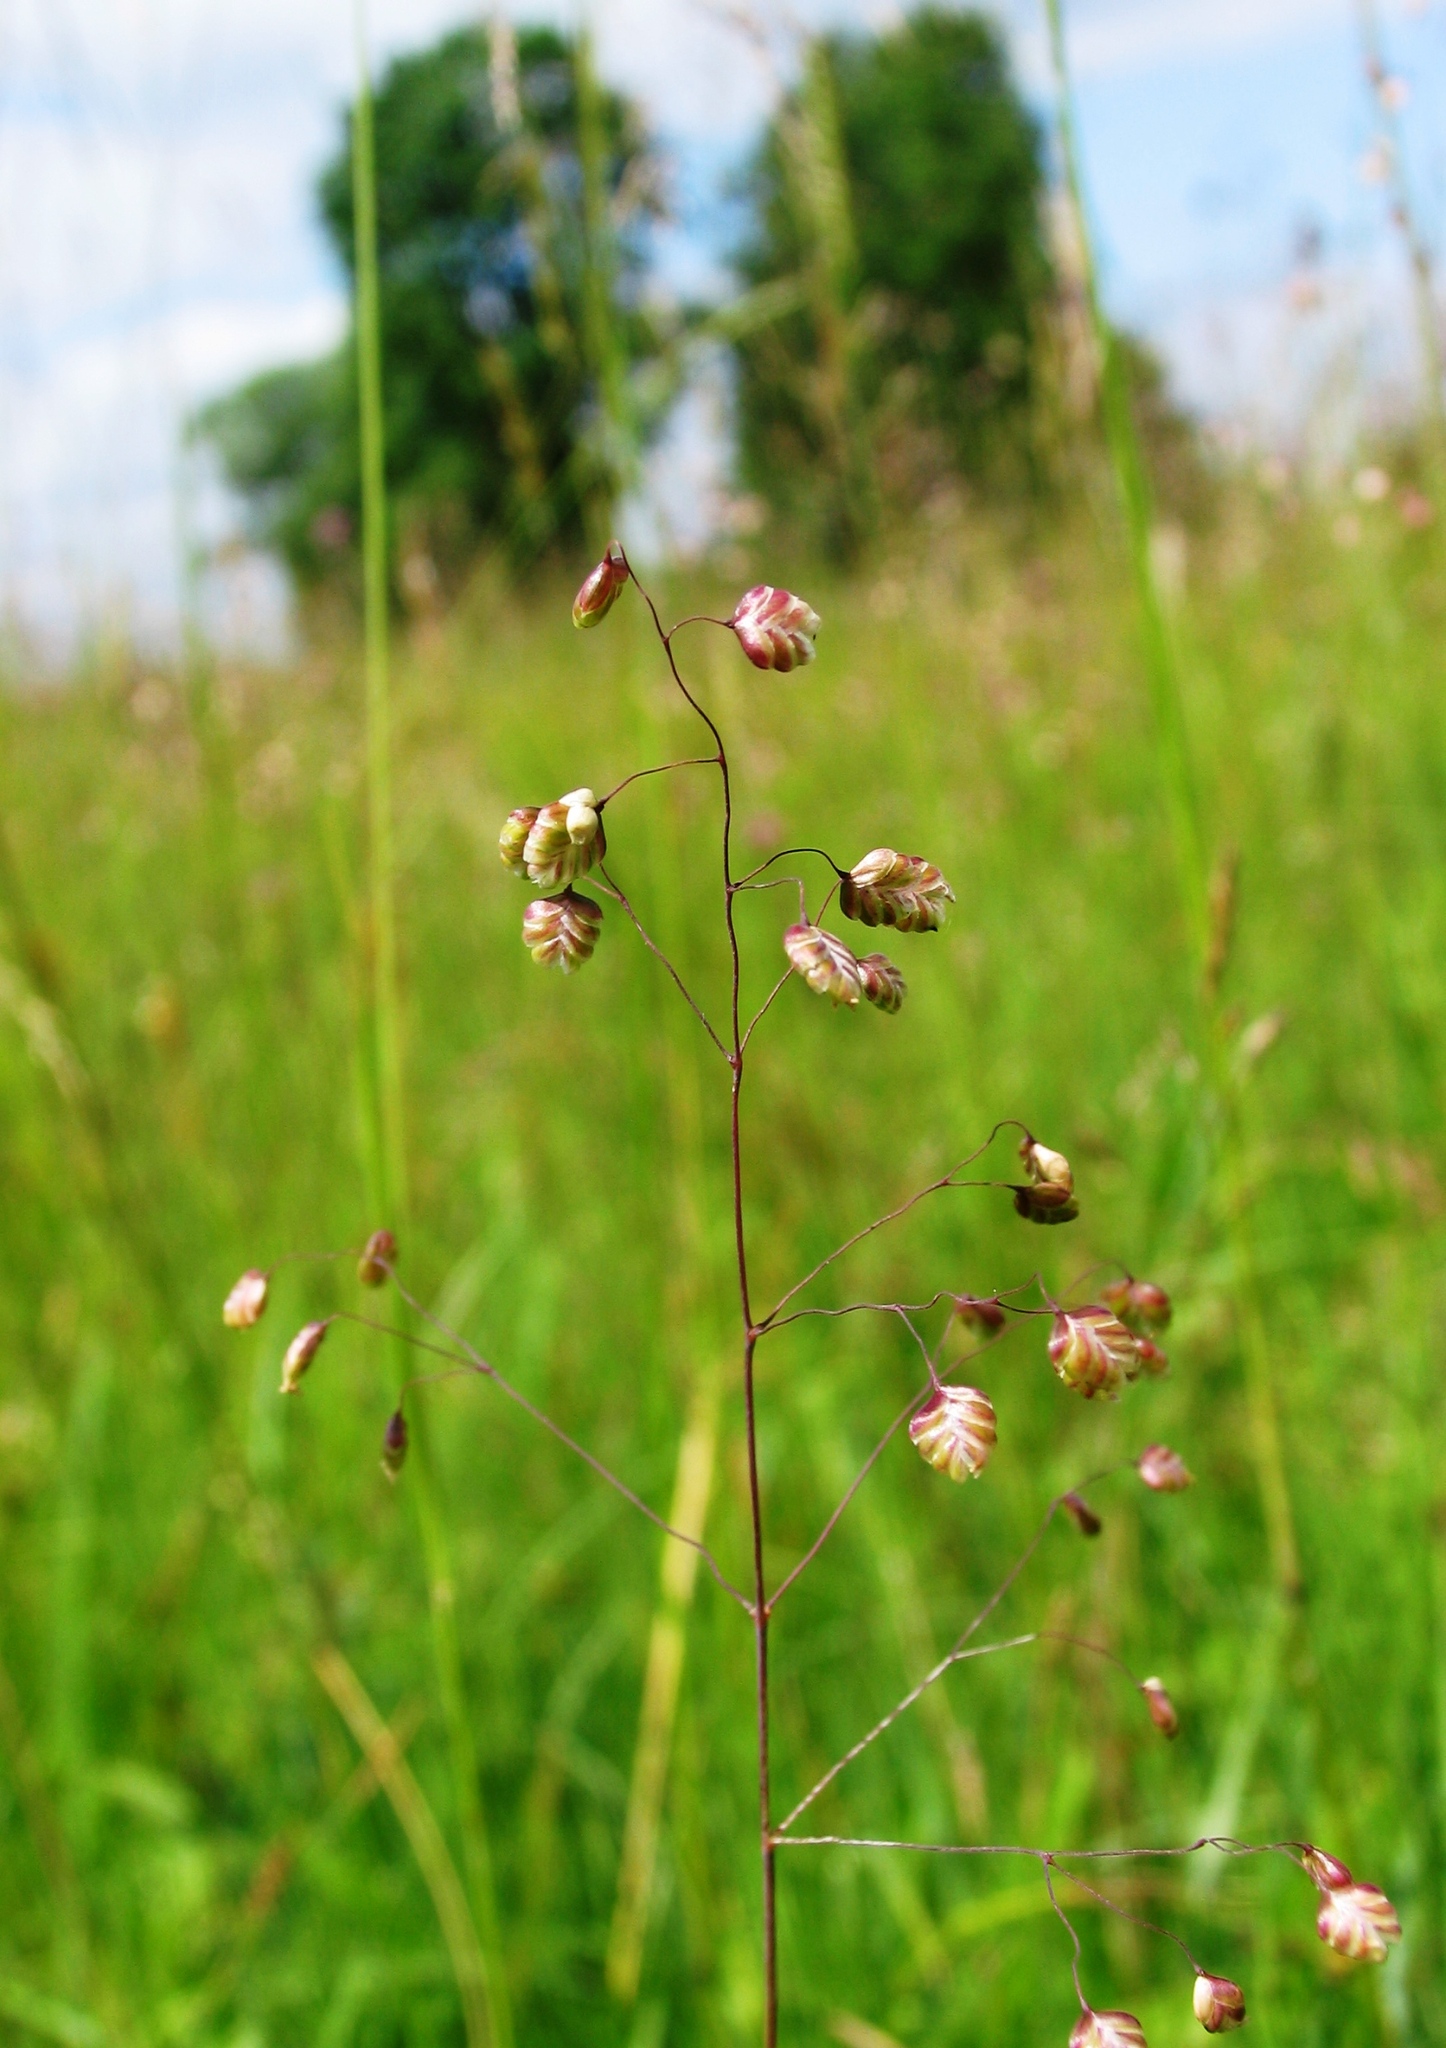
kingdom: Plantae
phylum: Tracheophyta
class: Liliopsida
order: Poales
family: Poaceae
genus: Briza
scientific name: Briza media
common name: Quaking grass
